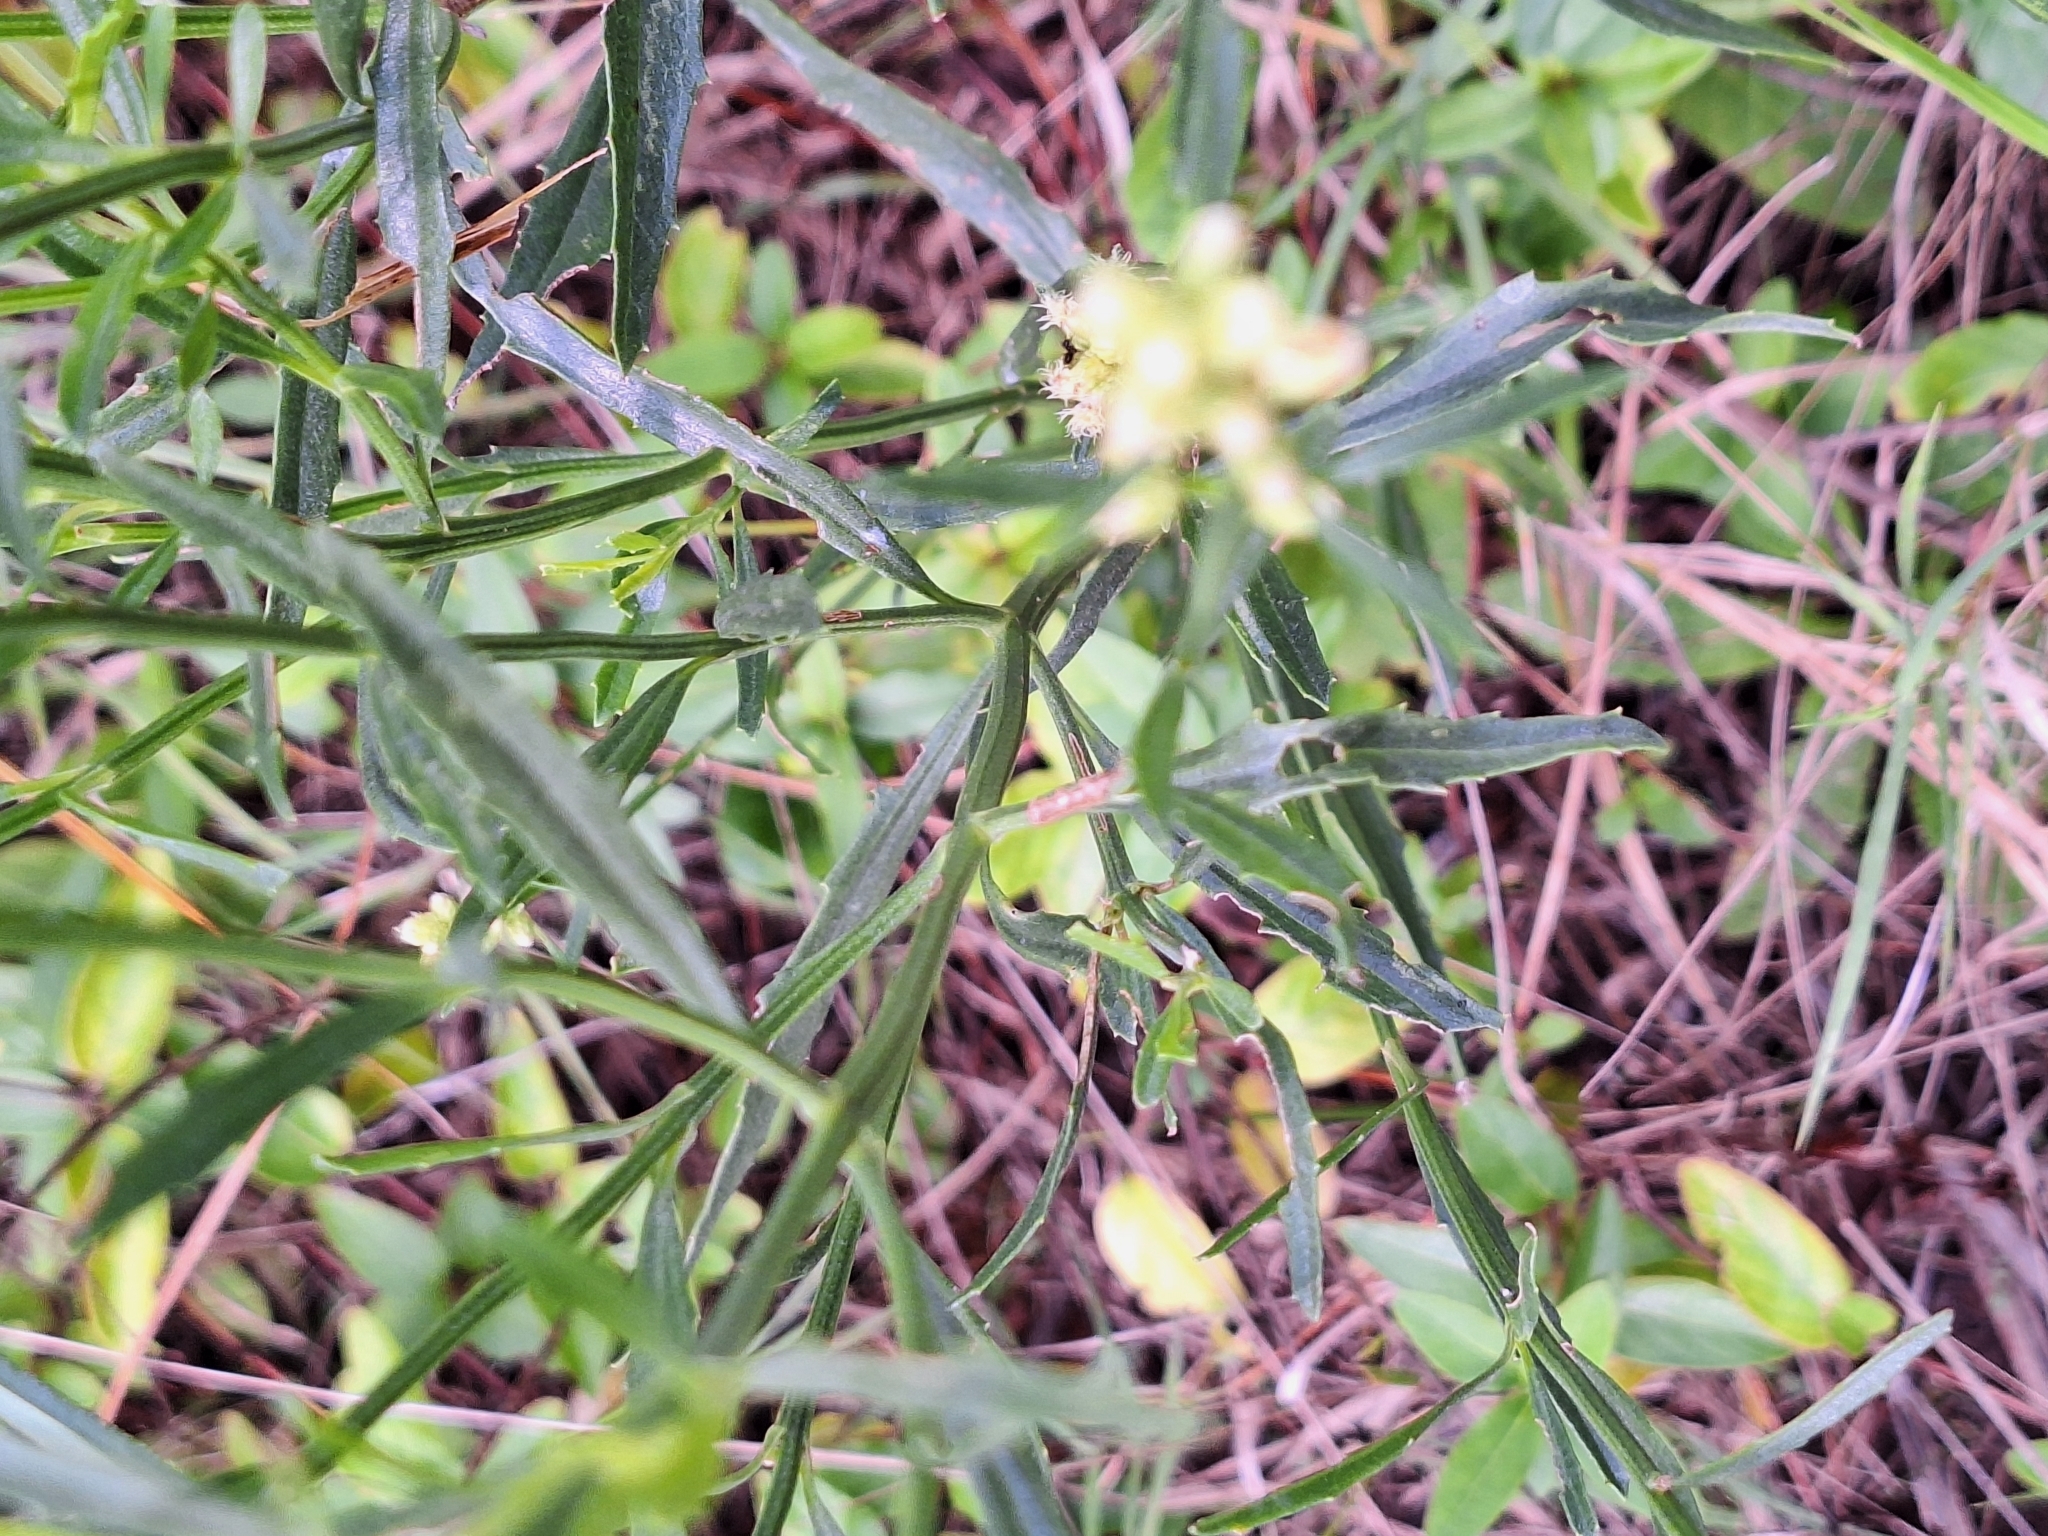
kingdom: Plantae
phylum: Tracheophyta
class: Magnoliopsida
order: Asterales
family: Asteraceae
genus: Baccharis
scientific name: Baccharis spicata
